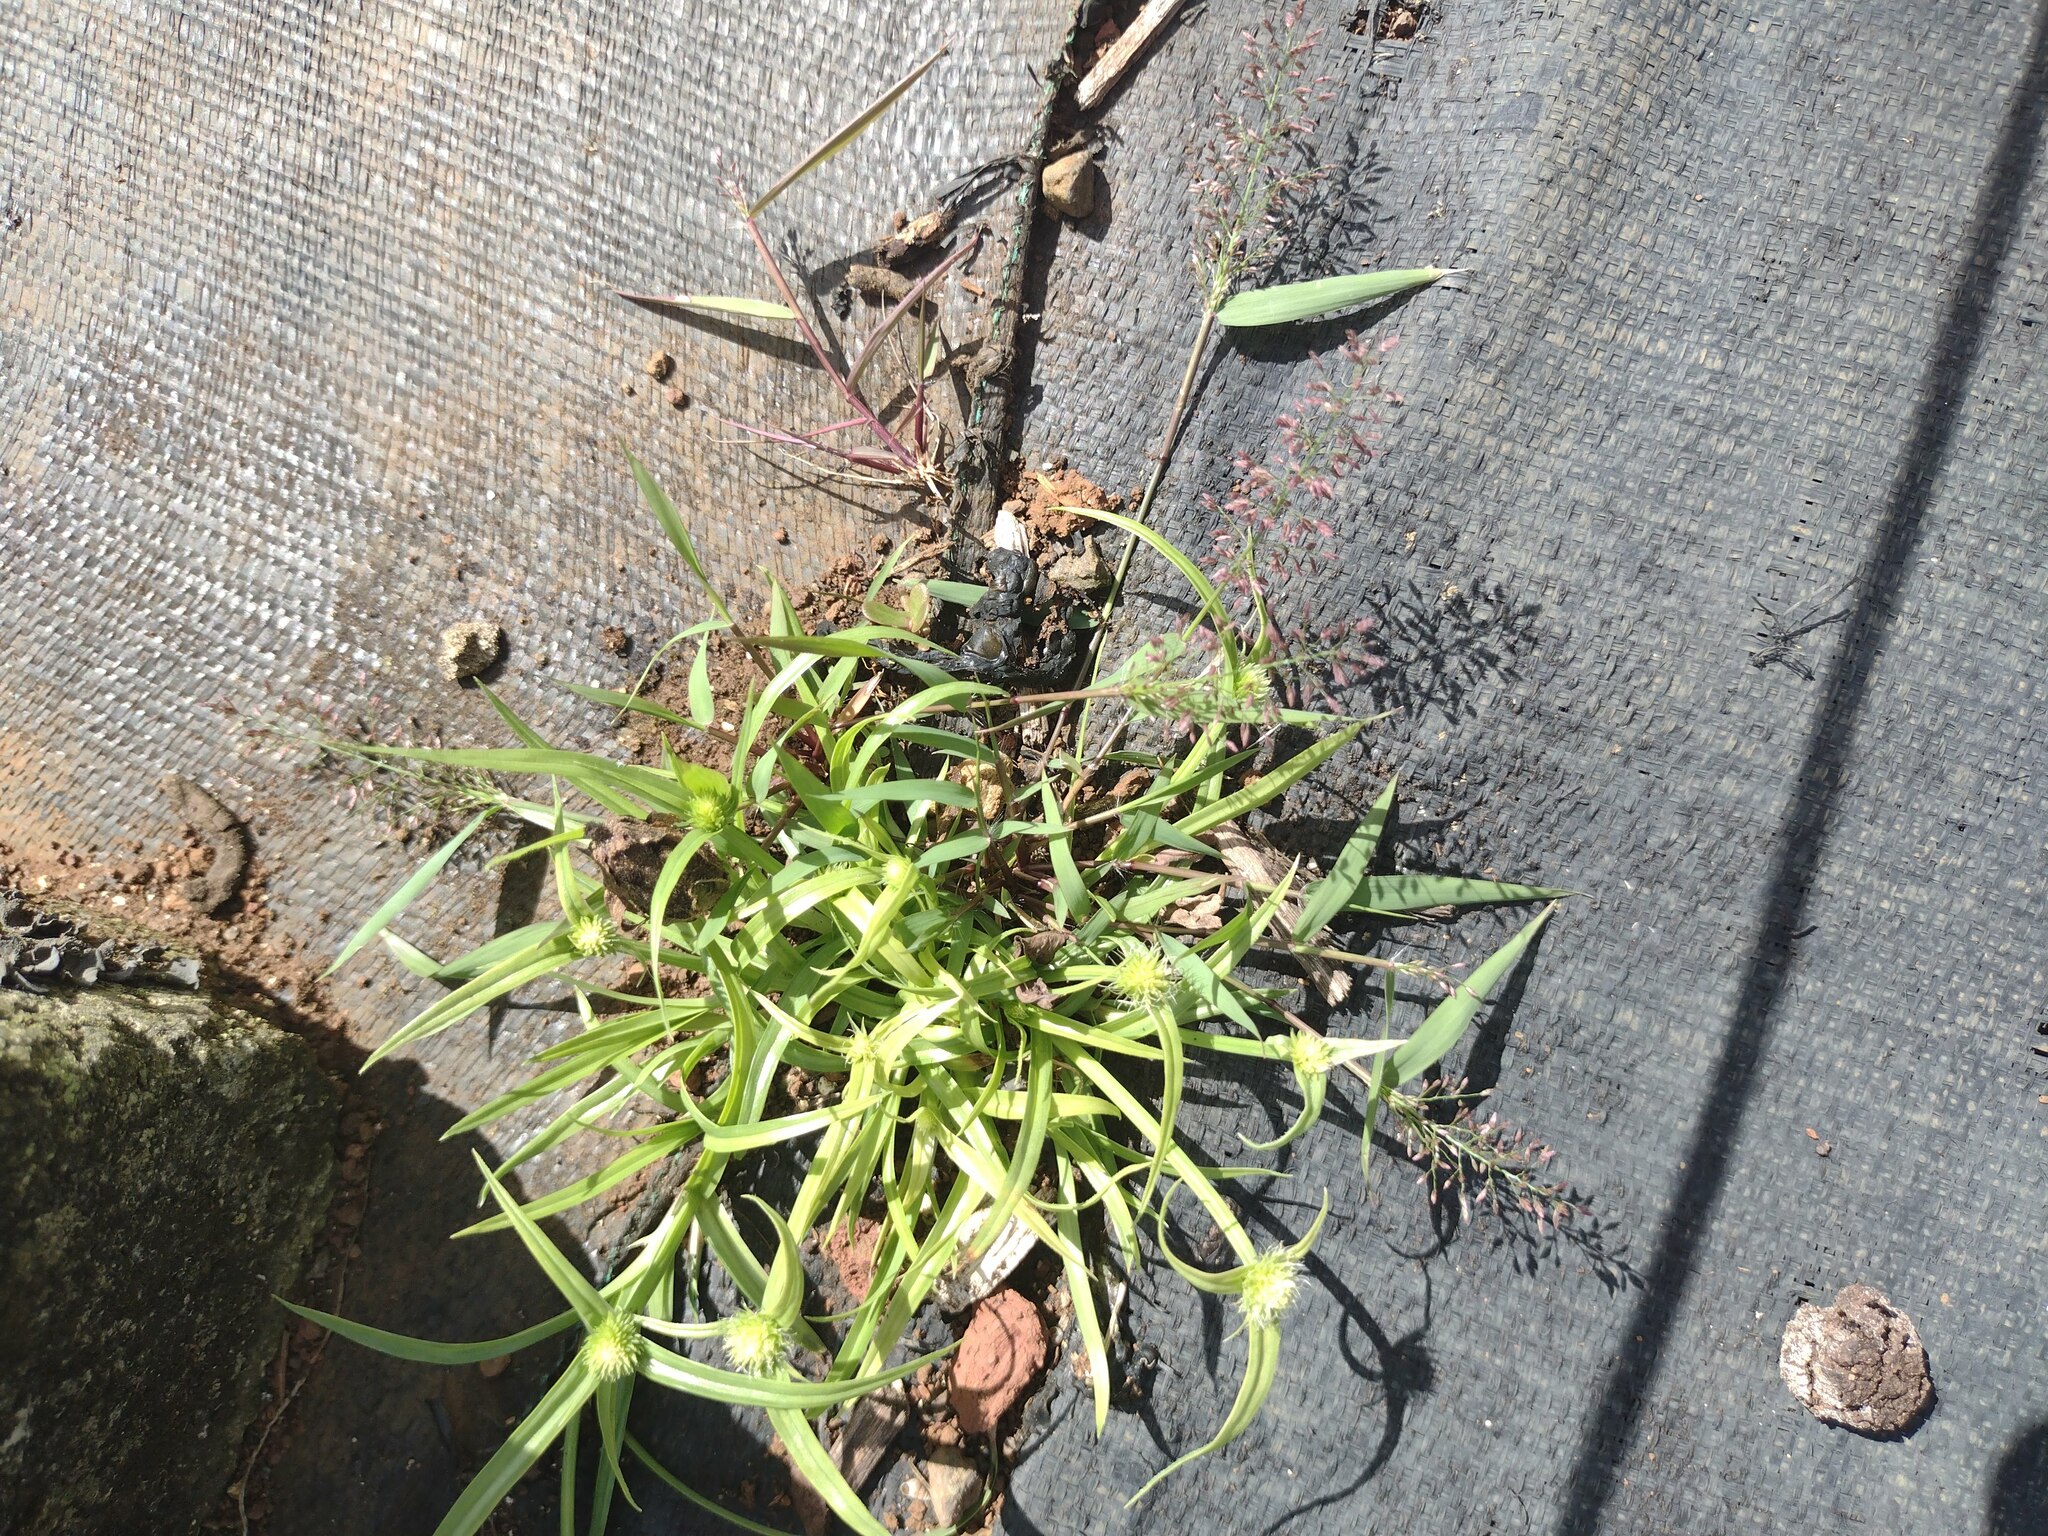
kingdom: Plantae
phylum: Tracheophyta
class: Liliopsida
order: Poales
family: Poaceae
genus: Eragrostis
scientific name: Eragrostis tenella
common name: Japanese lovegrass
